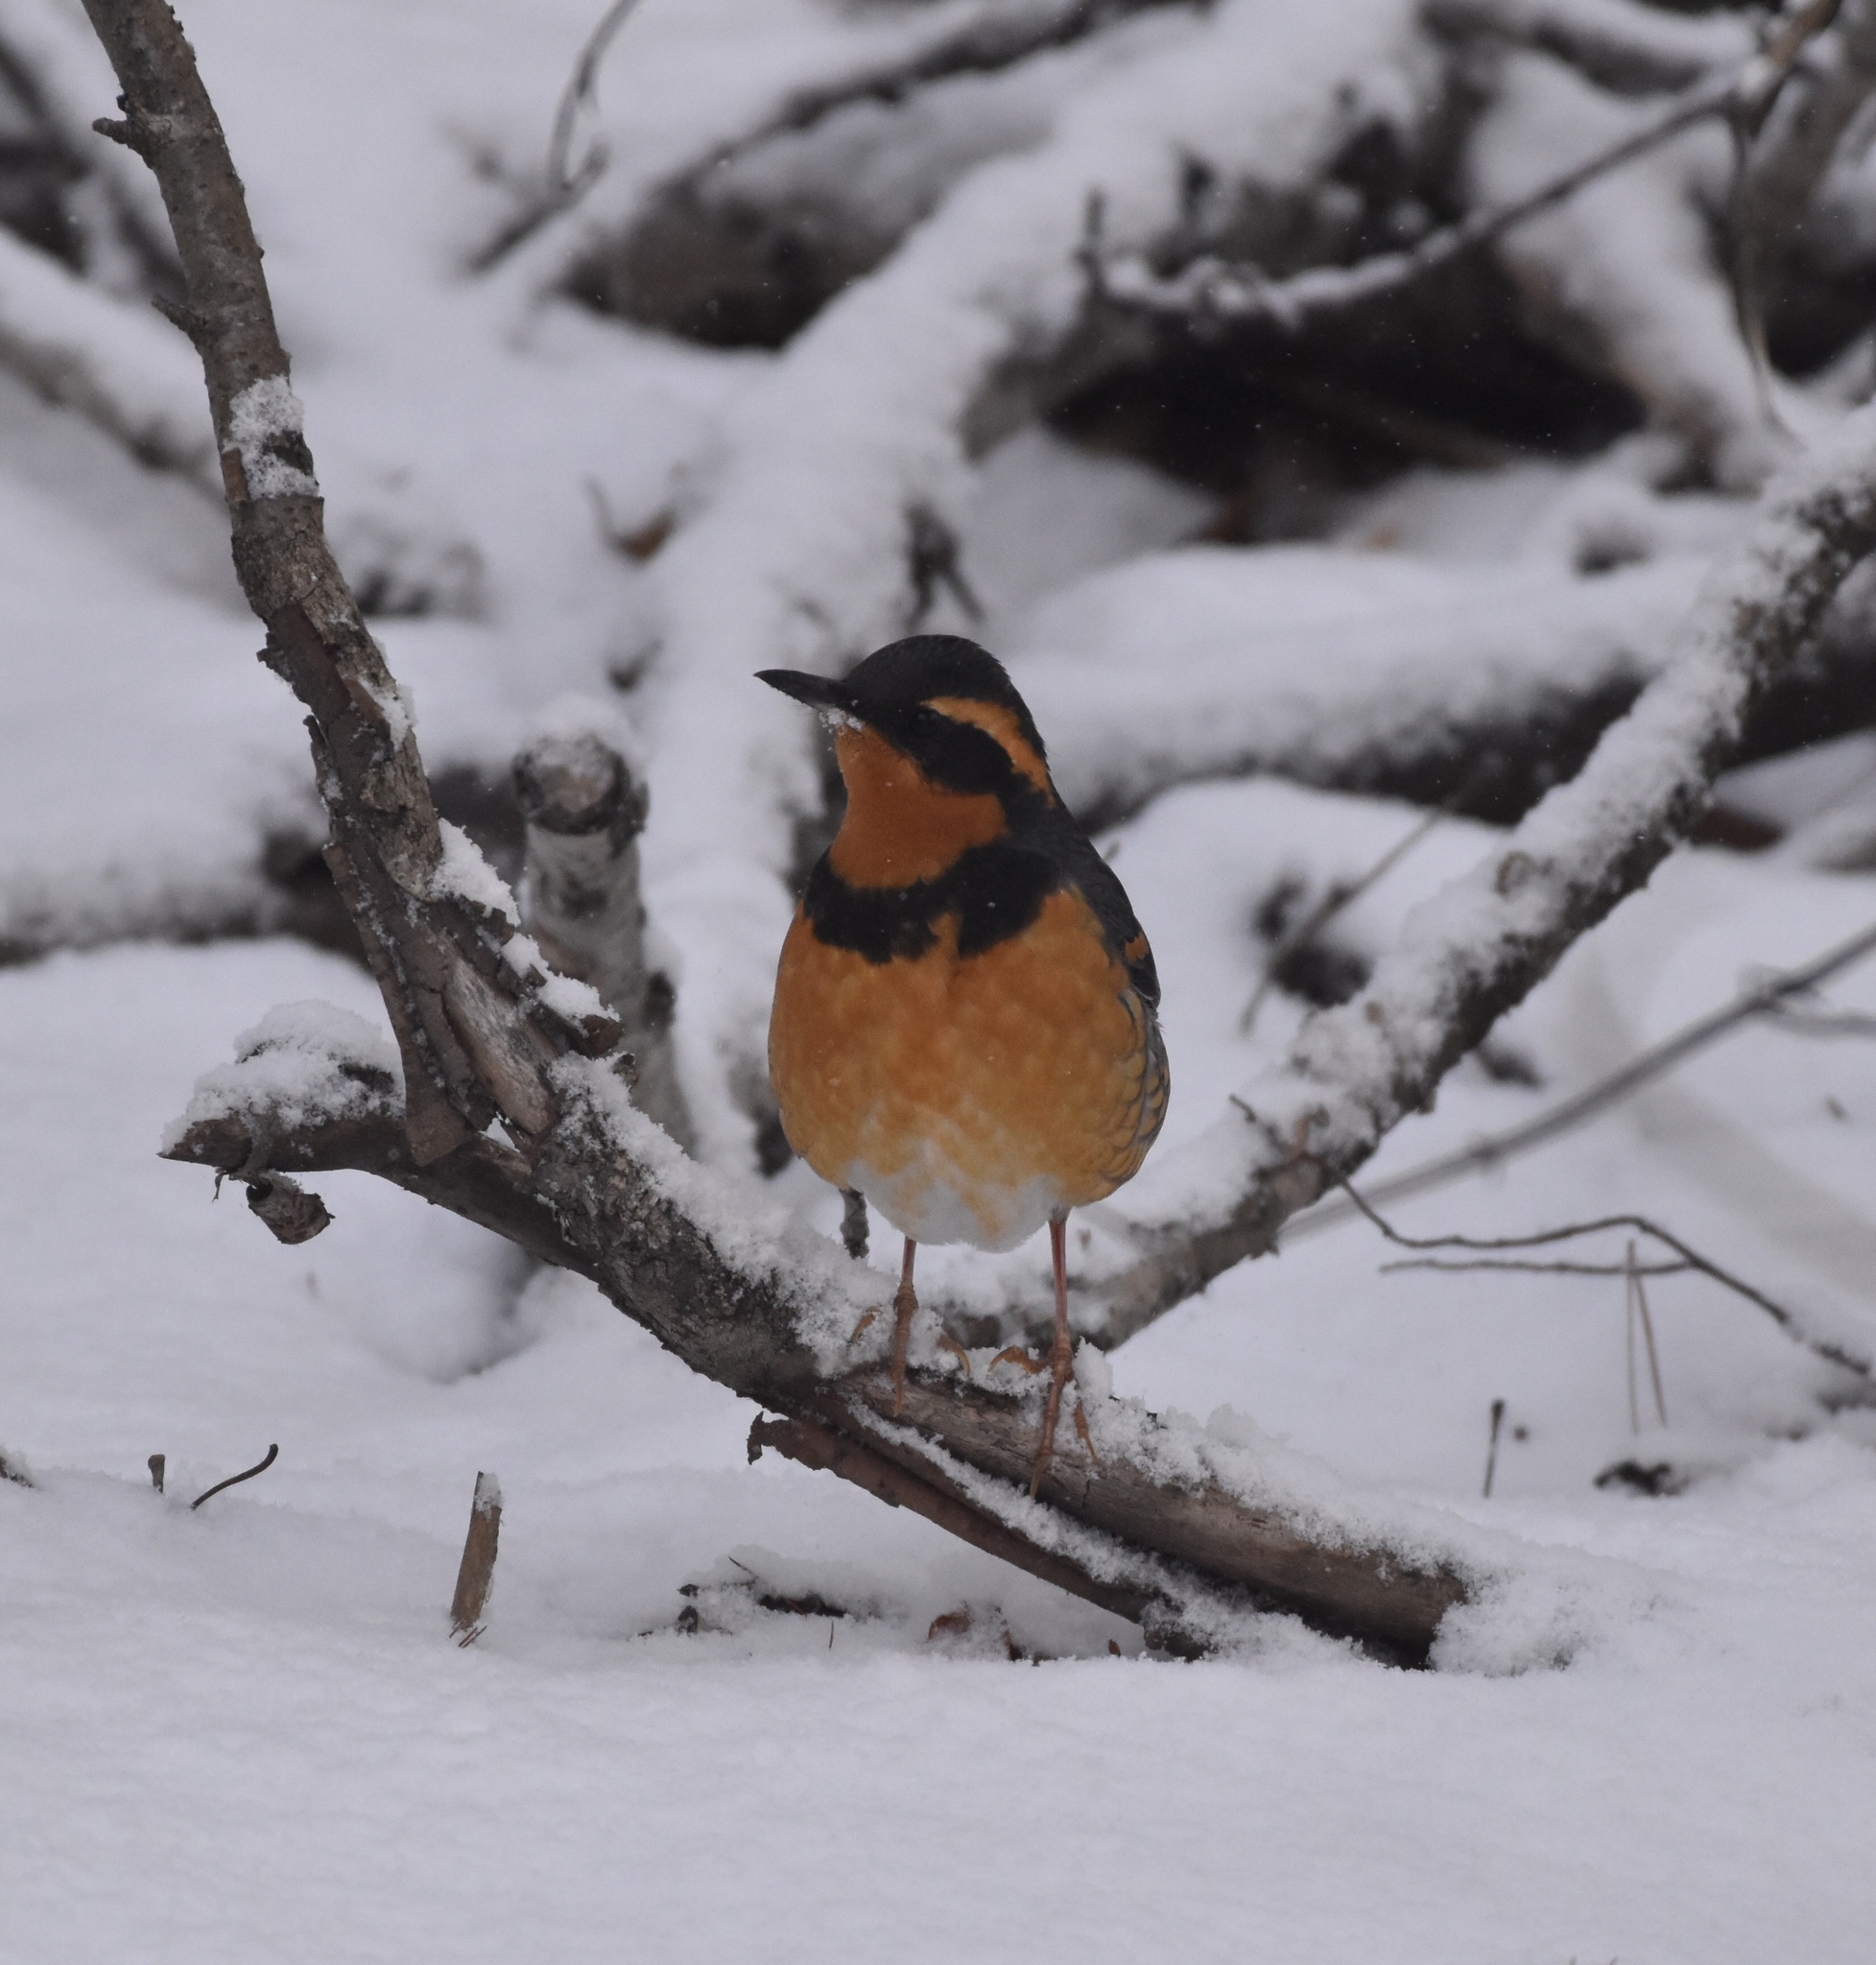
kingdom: Animalia
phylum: Chordata
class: Aves
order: Passeriformes
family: Turdidae
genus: Ixoreus
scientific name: Ixoreus naevius
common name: Varied thrush
